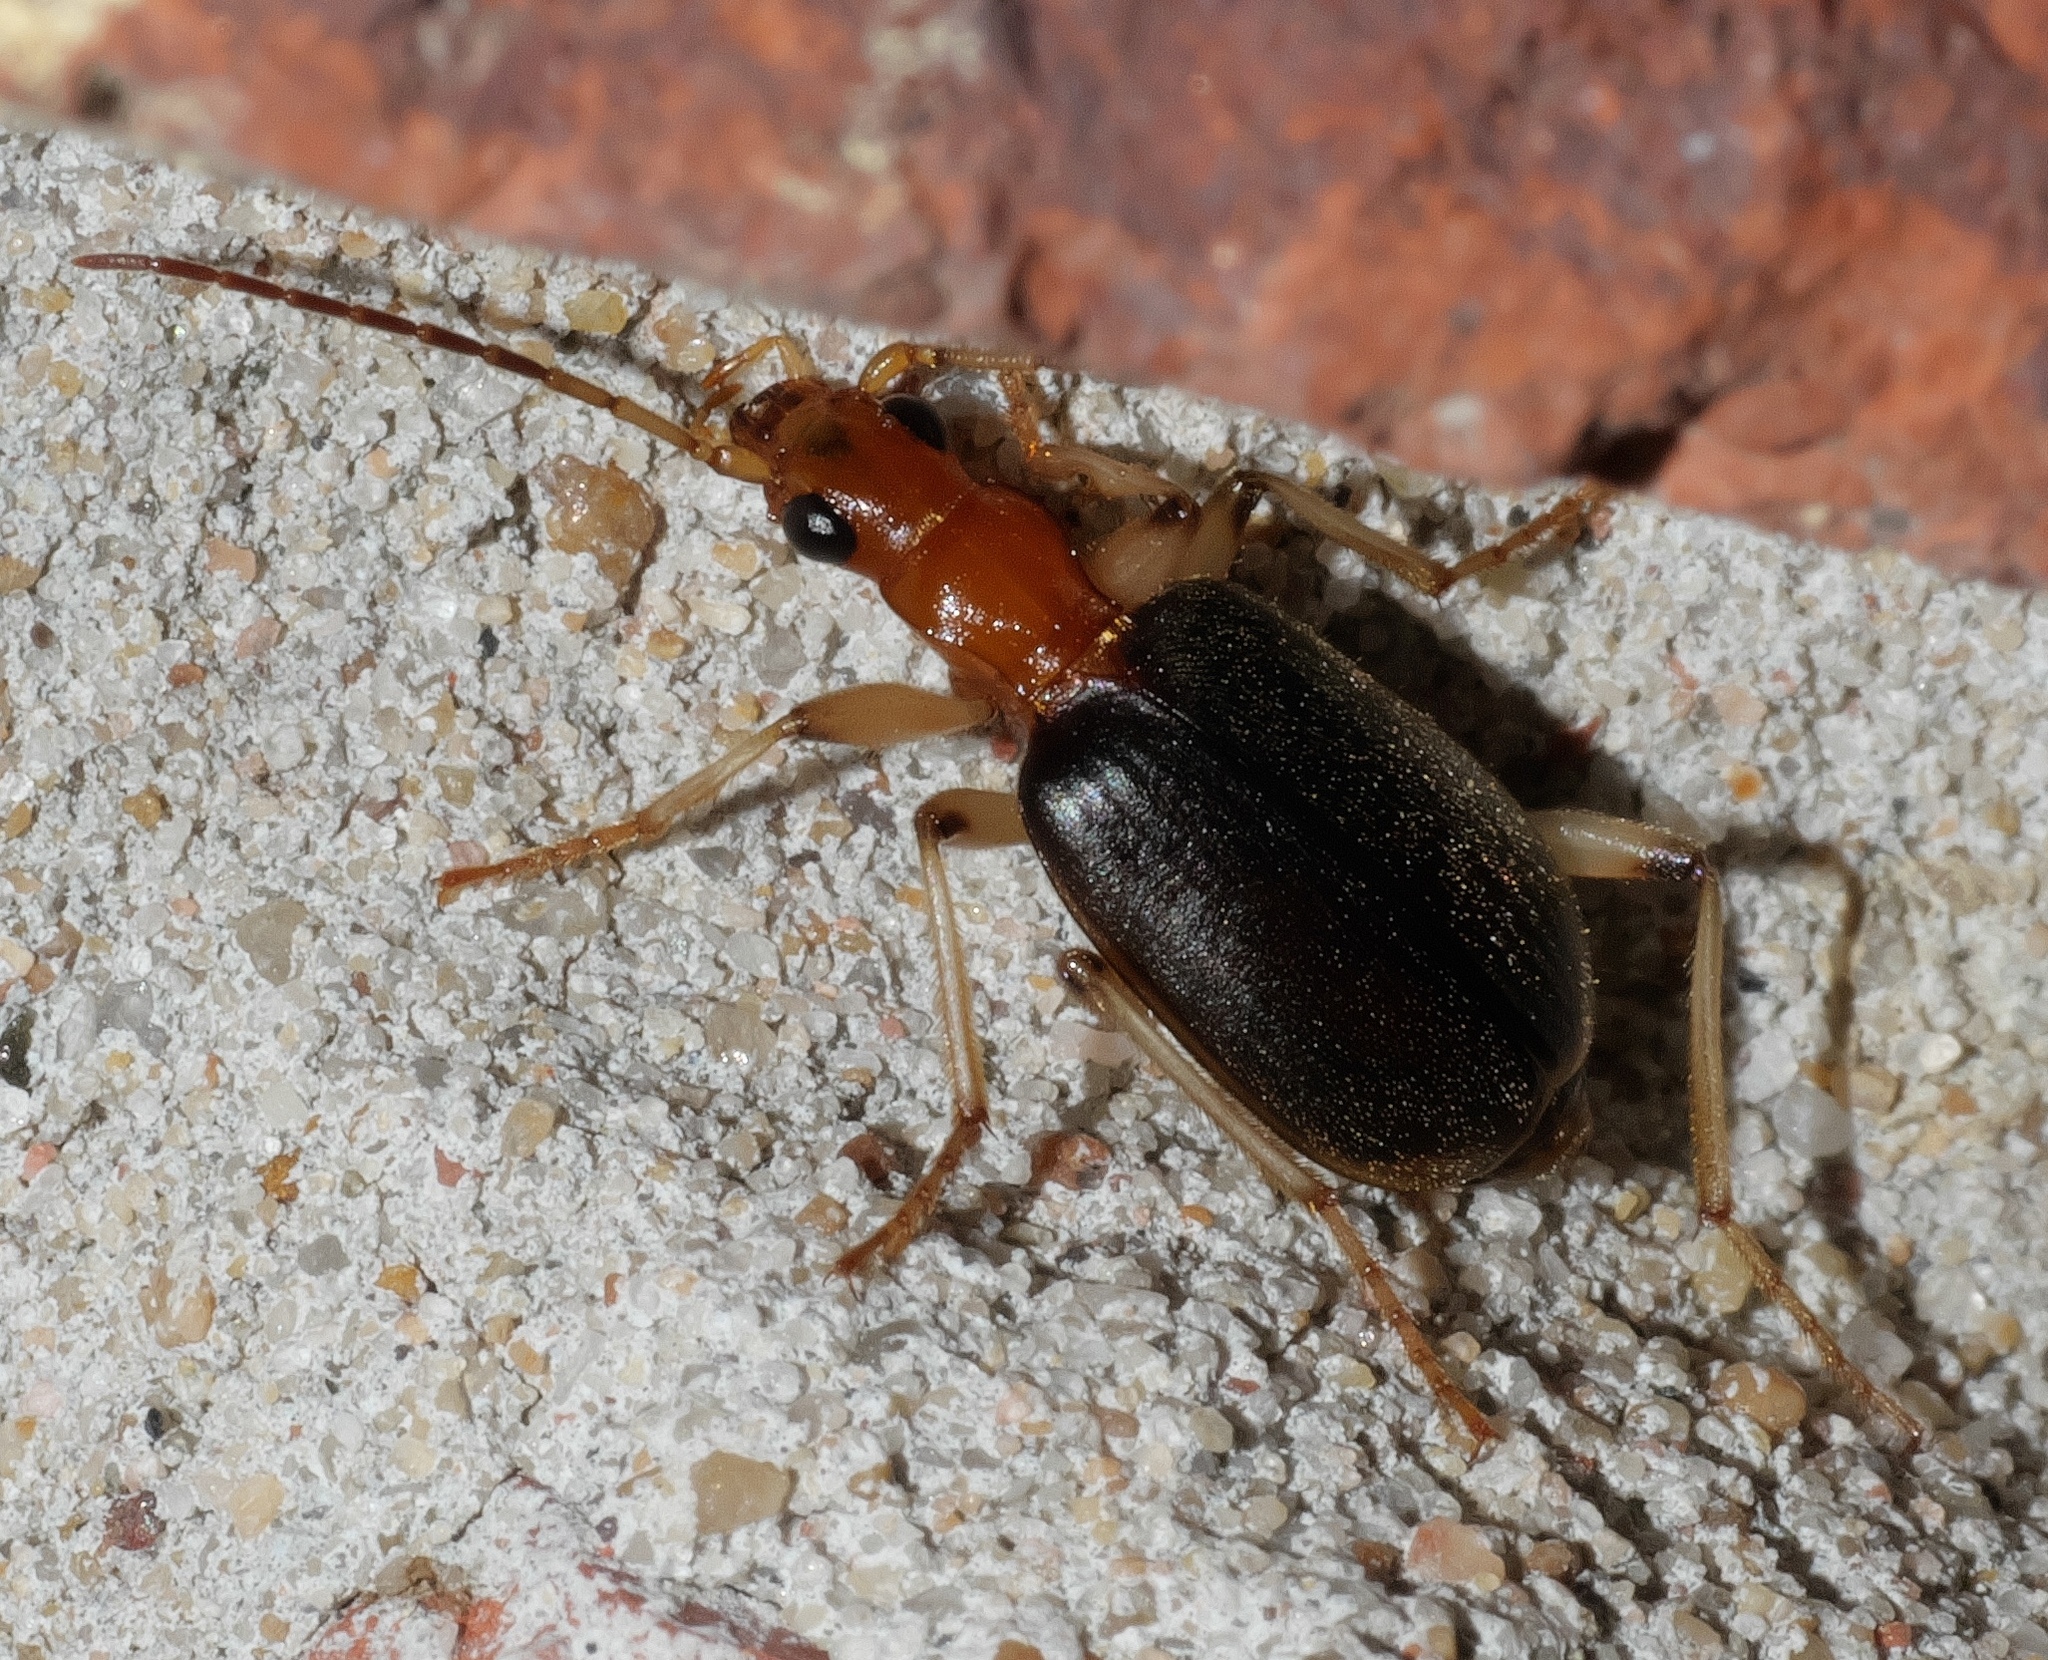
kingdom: Animalia
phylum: Arthropoda
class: Insecta
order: Coleoptera
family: Carabidae
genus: Brachinus
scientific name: Brachinus adustipennis
